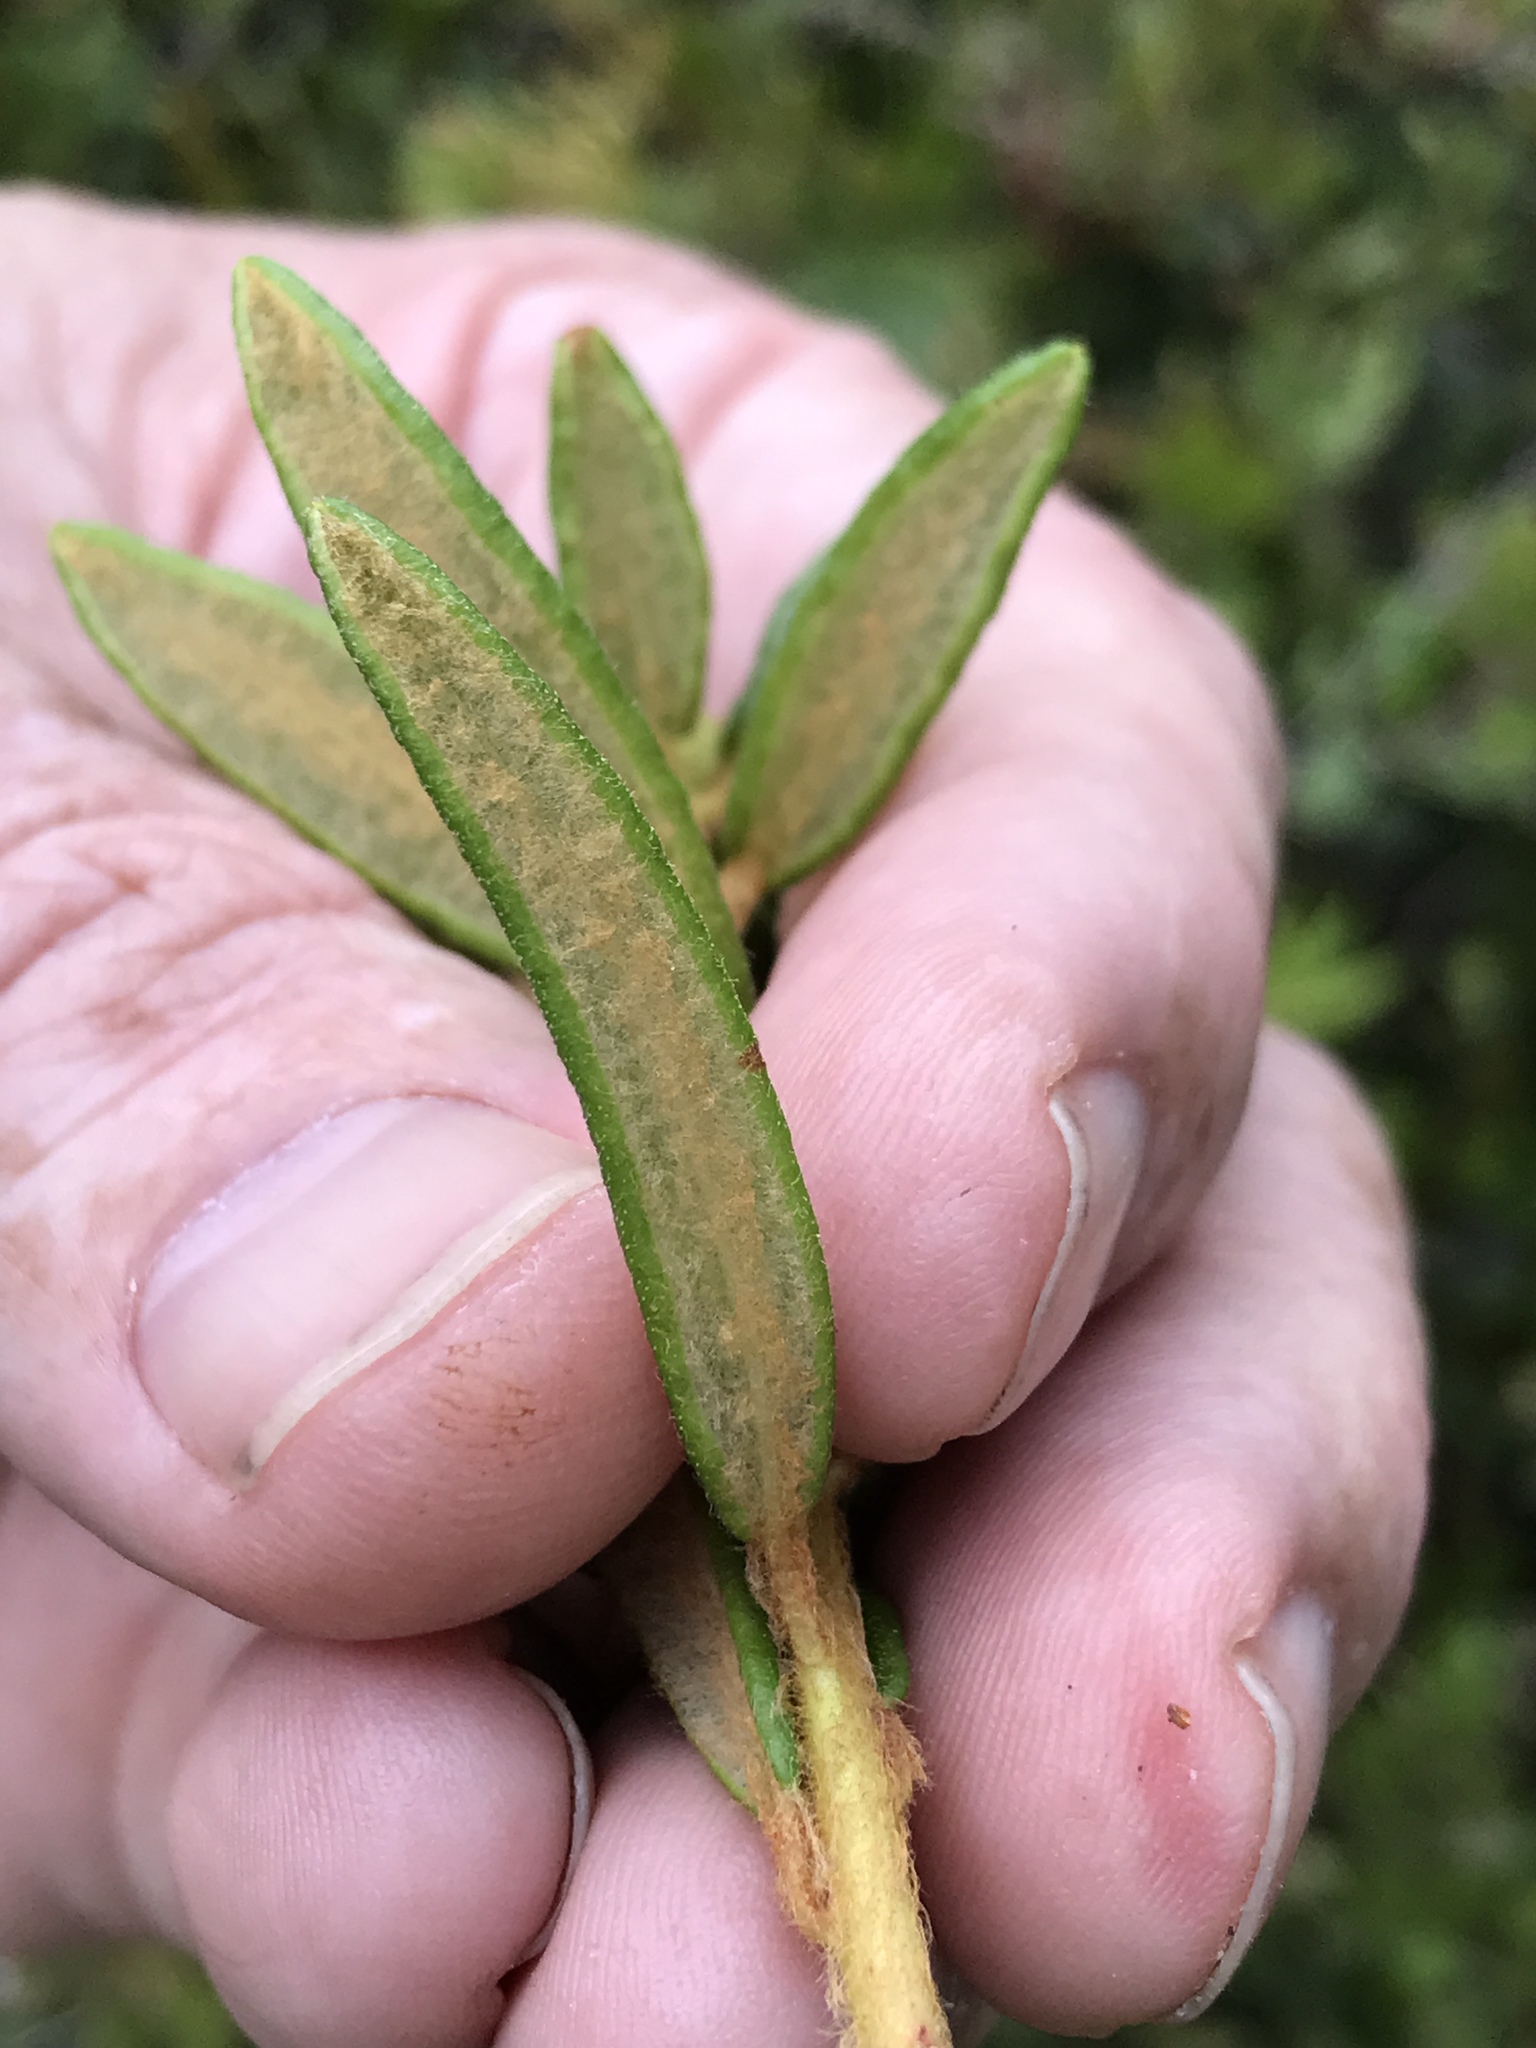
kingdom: Plantae
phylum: Tracheophyta
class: Magnoliopsida
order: Ericales
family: Ericaceae
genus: Rhododendron
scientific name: Rhododendron groenlandicum
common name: Bog labrador tea
